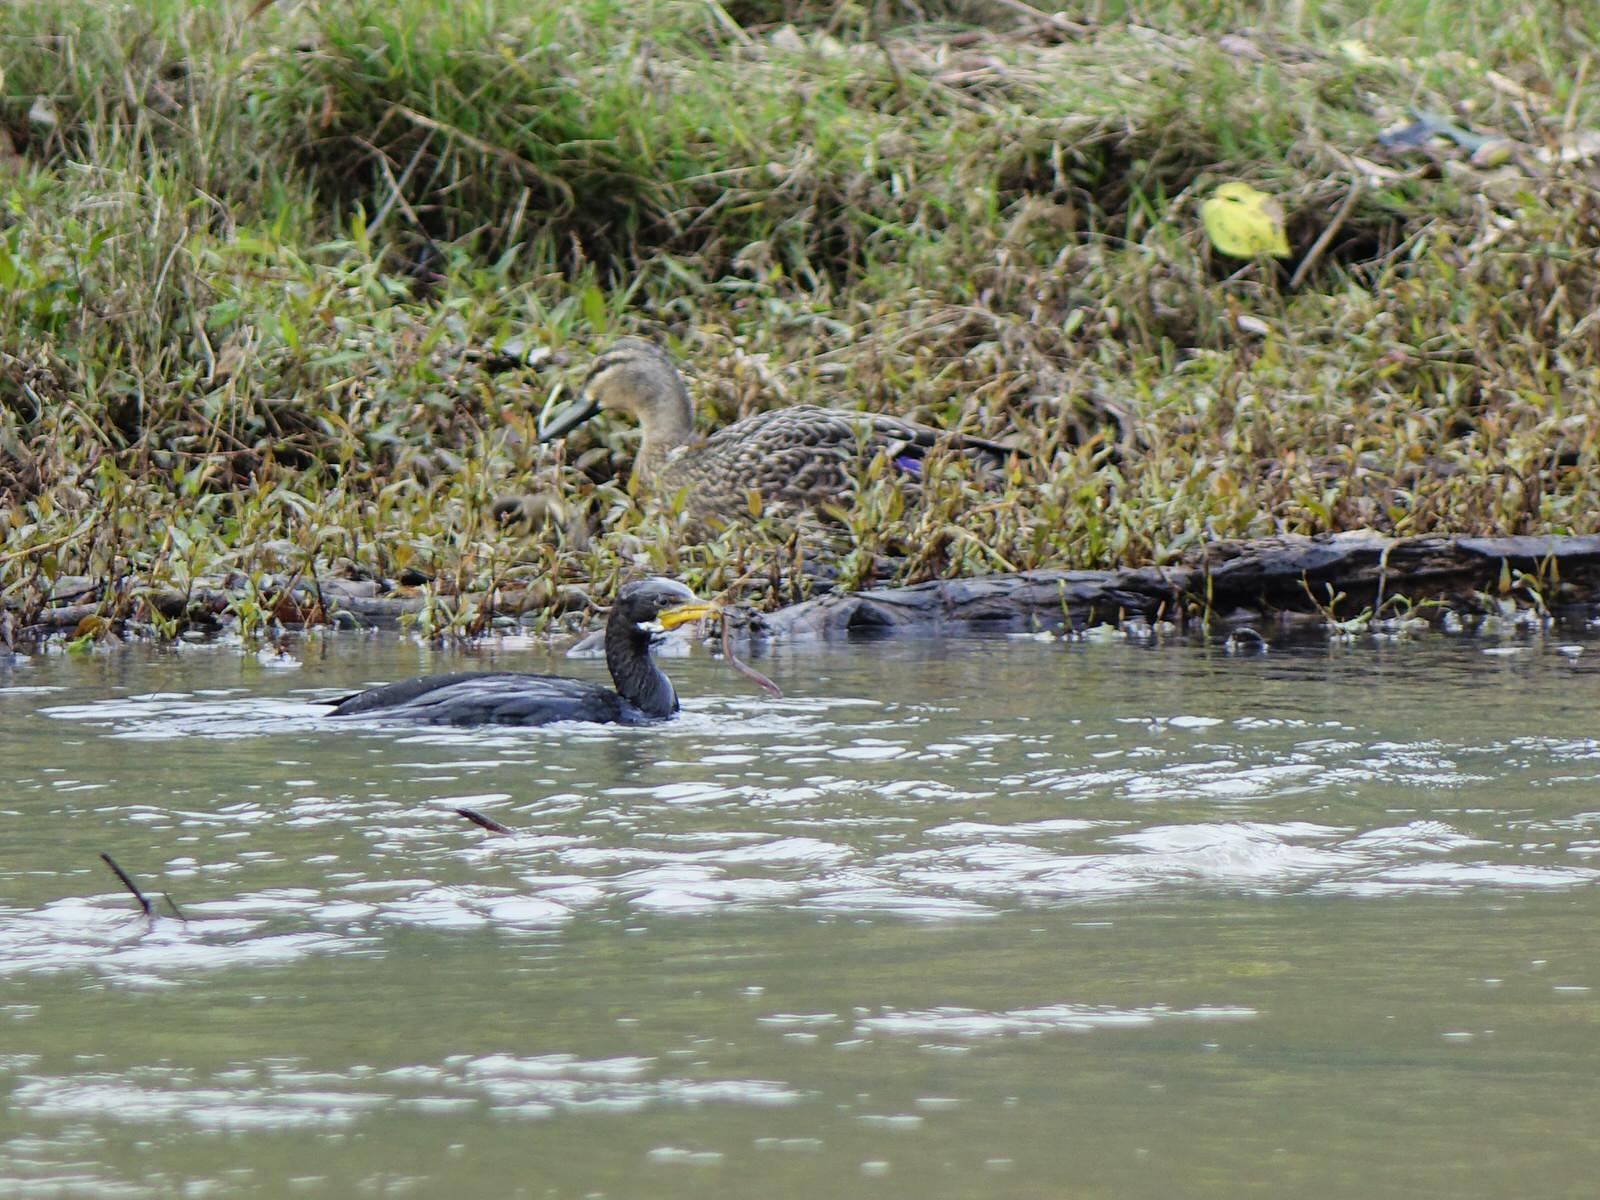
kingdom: Animalia
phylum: Chordata
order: Anguilliformes
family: Anguillidae
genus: Anguilla
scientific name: Anguilla
